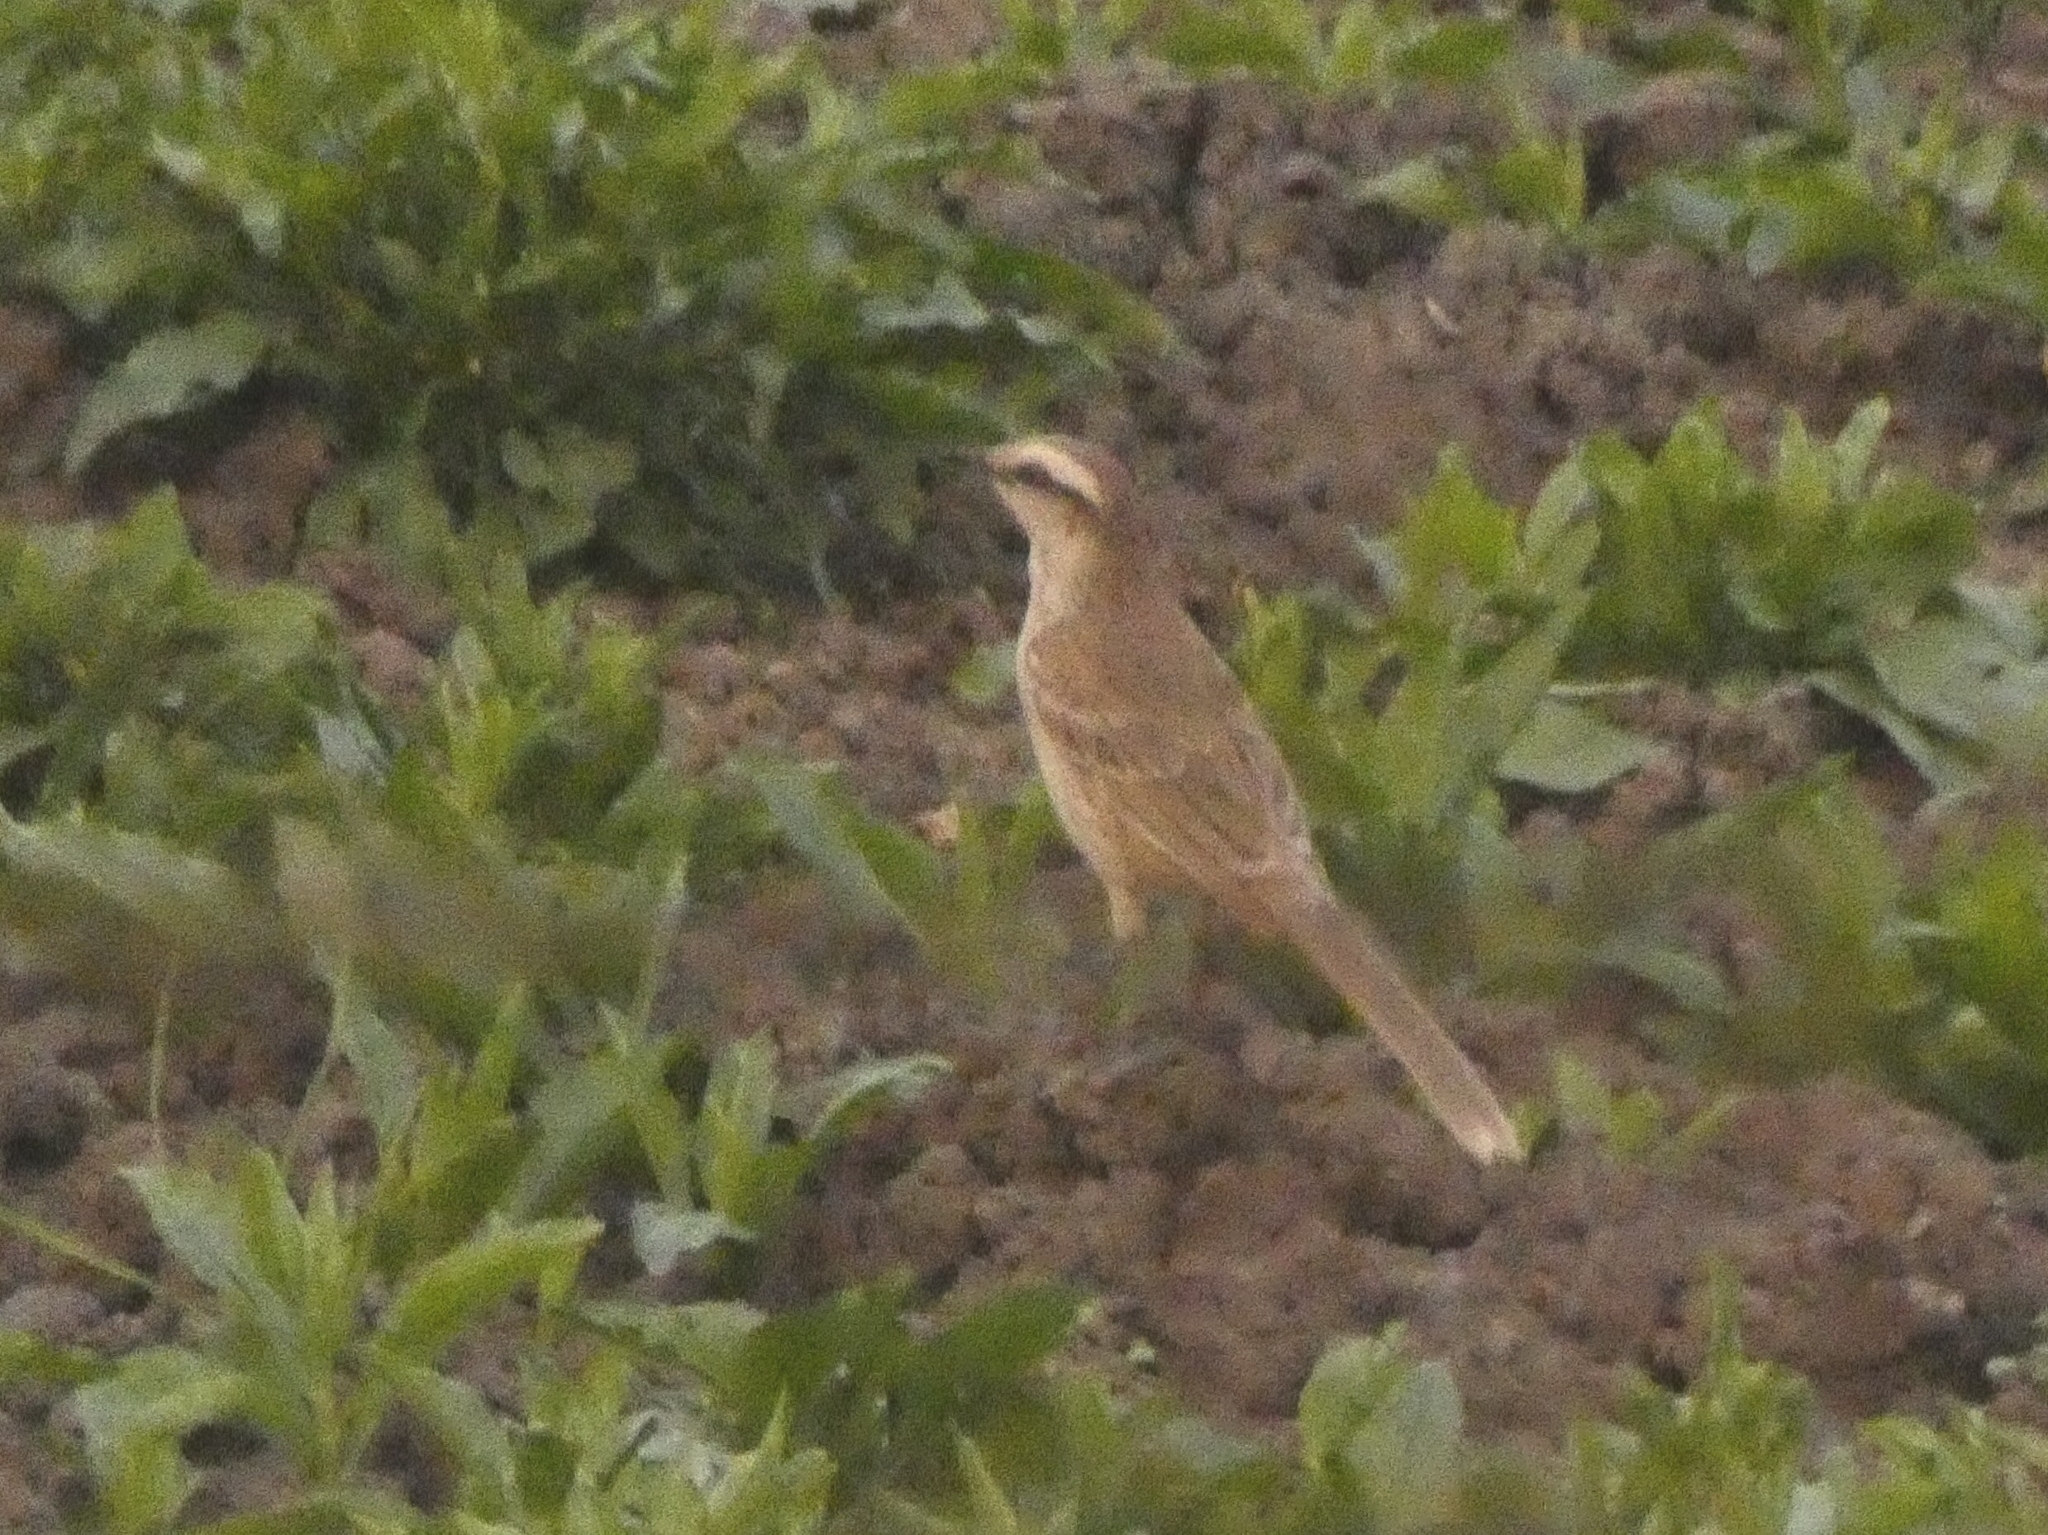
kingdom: Animalia
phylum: Chordata
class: Aves
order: Passeriformes
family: Mimidae
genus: Mimus
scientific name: Mimus saturninus
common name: Chalk-browed mockingbird
